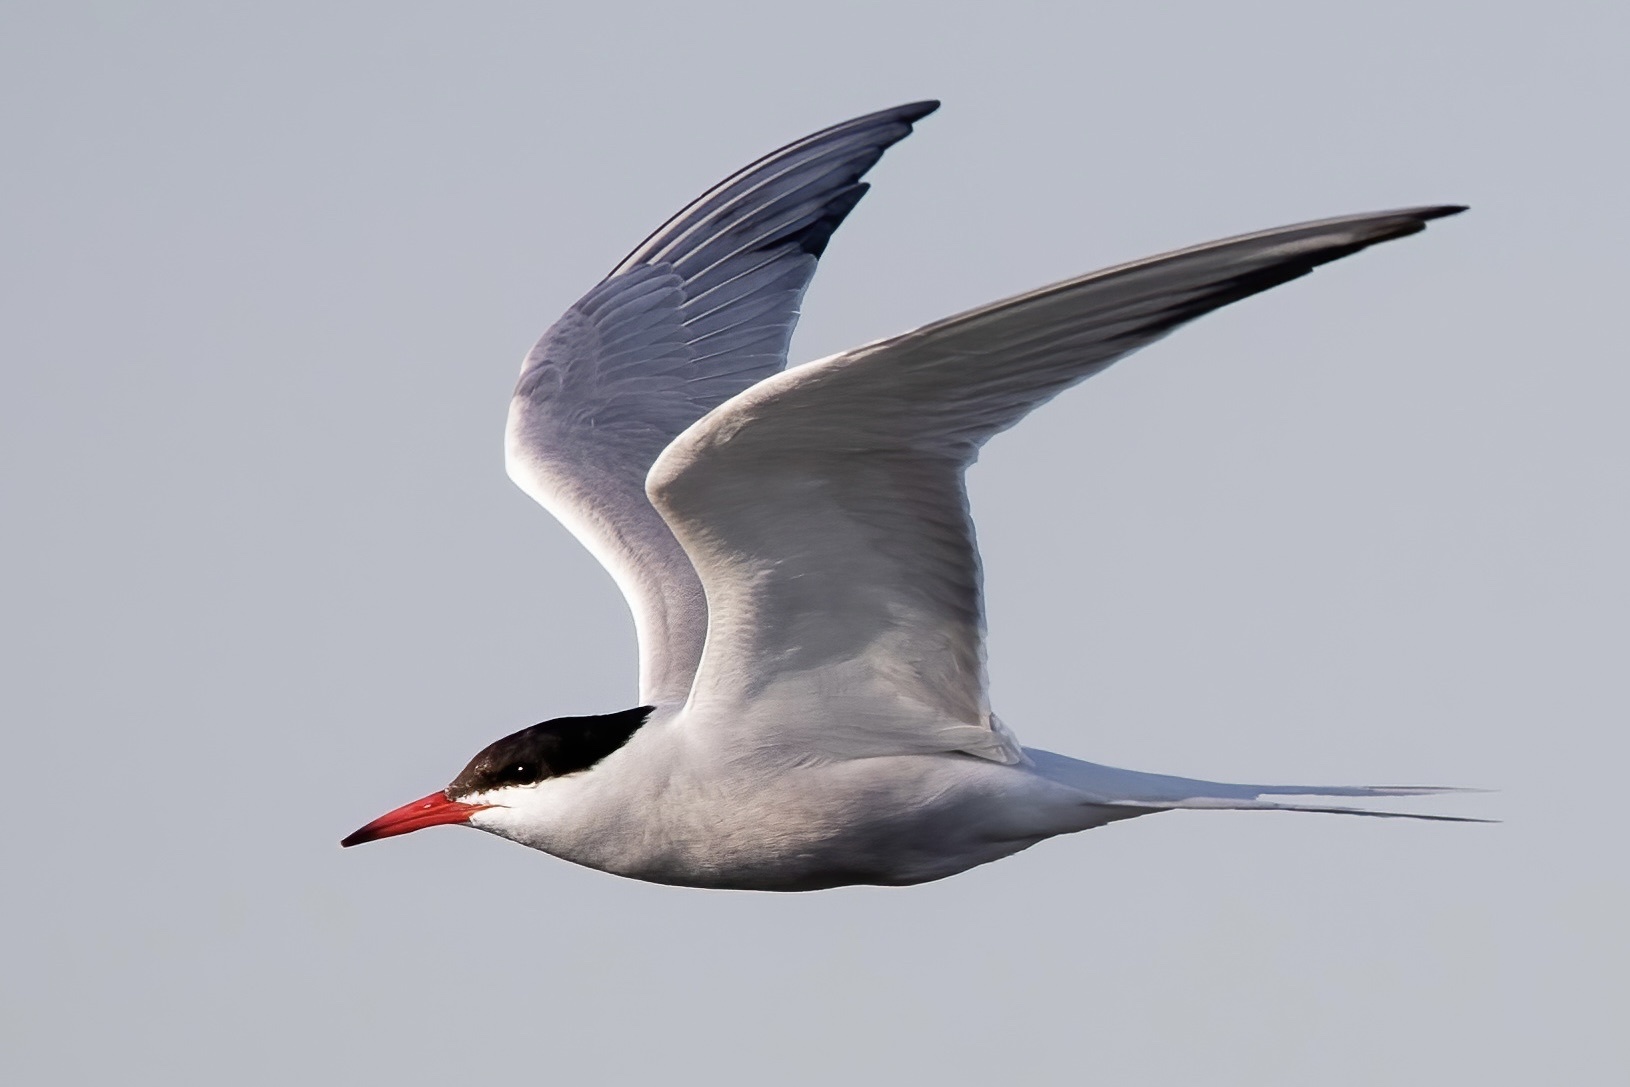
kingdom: Animalia
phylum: Chordata
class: Aves
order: Charadriiformes
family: Laridae
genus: Sterna
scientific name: Sterna hirundo
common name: Common tern
